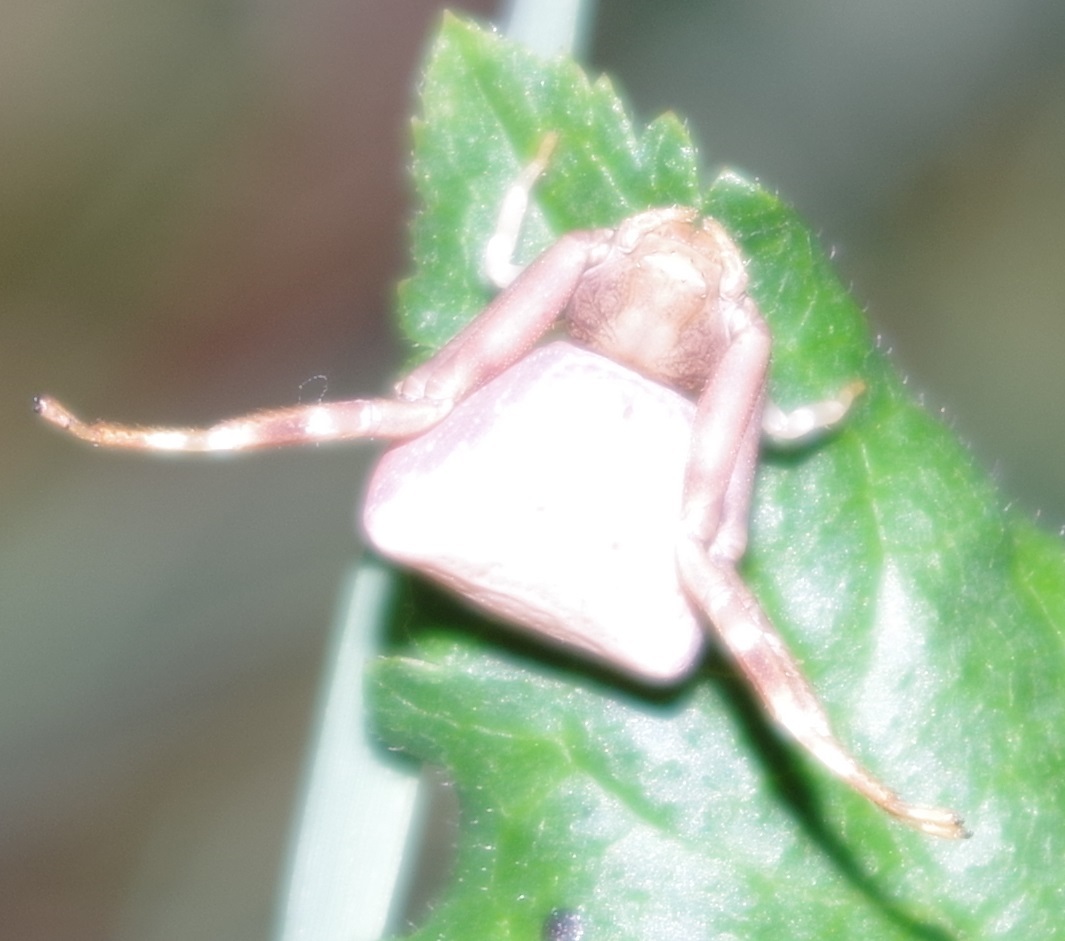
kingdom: Animalia
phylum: Arthropoda
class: Arachnida
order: Araneae
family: Thomisidae
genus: Pistius
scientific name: Pistius truncatus
